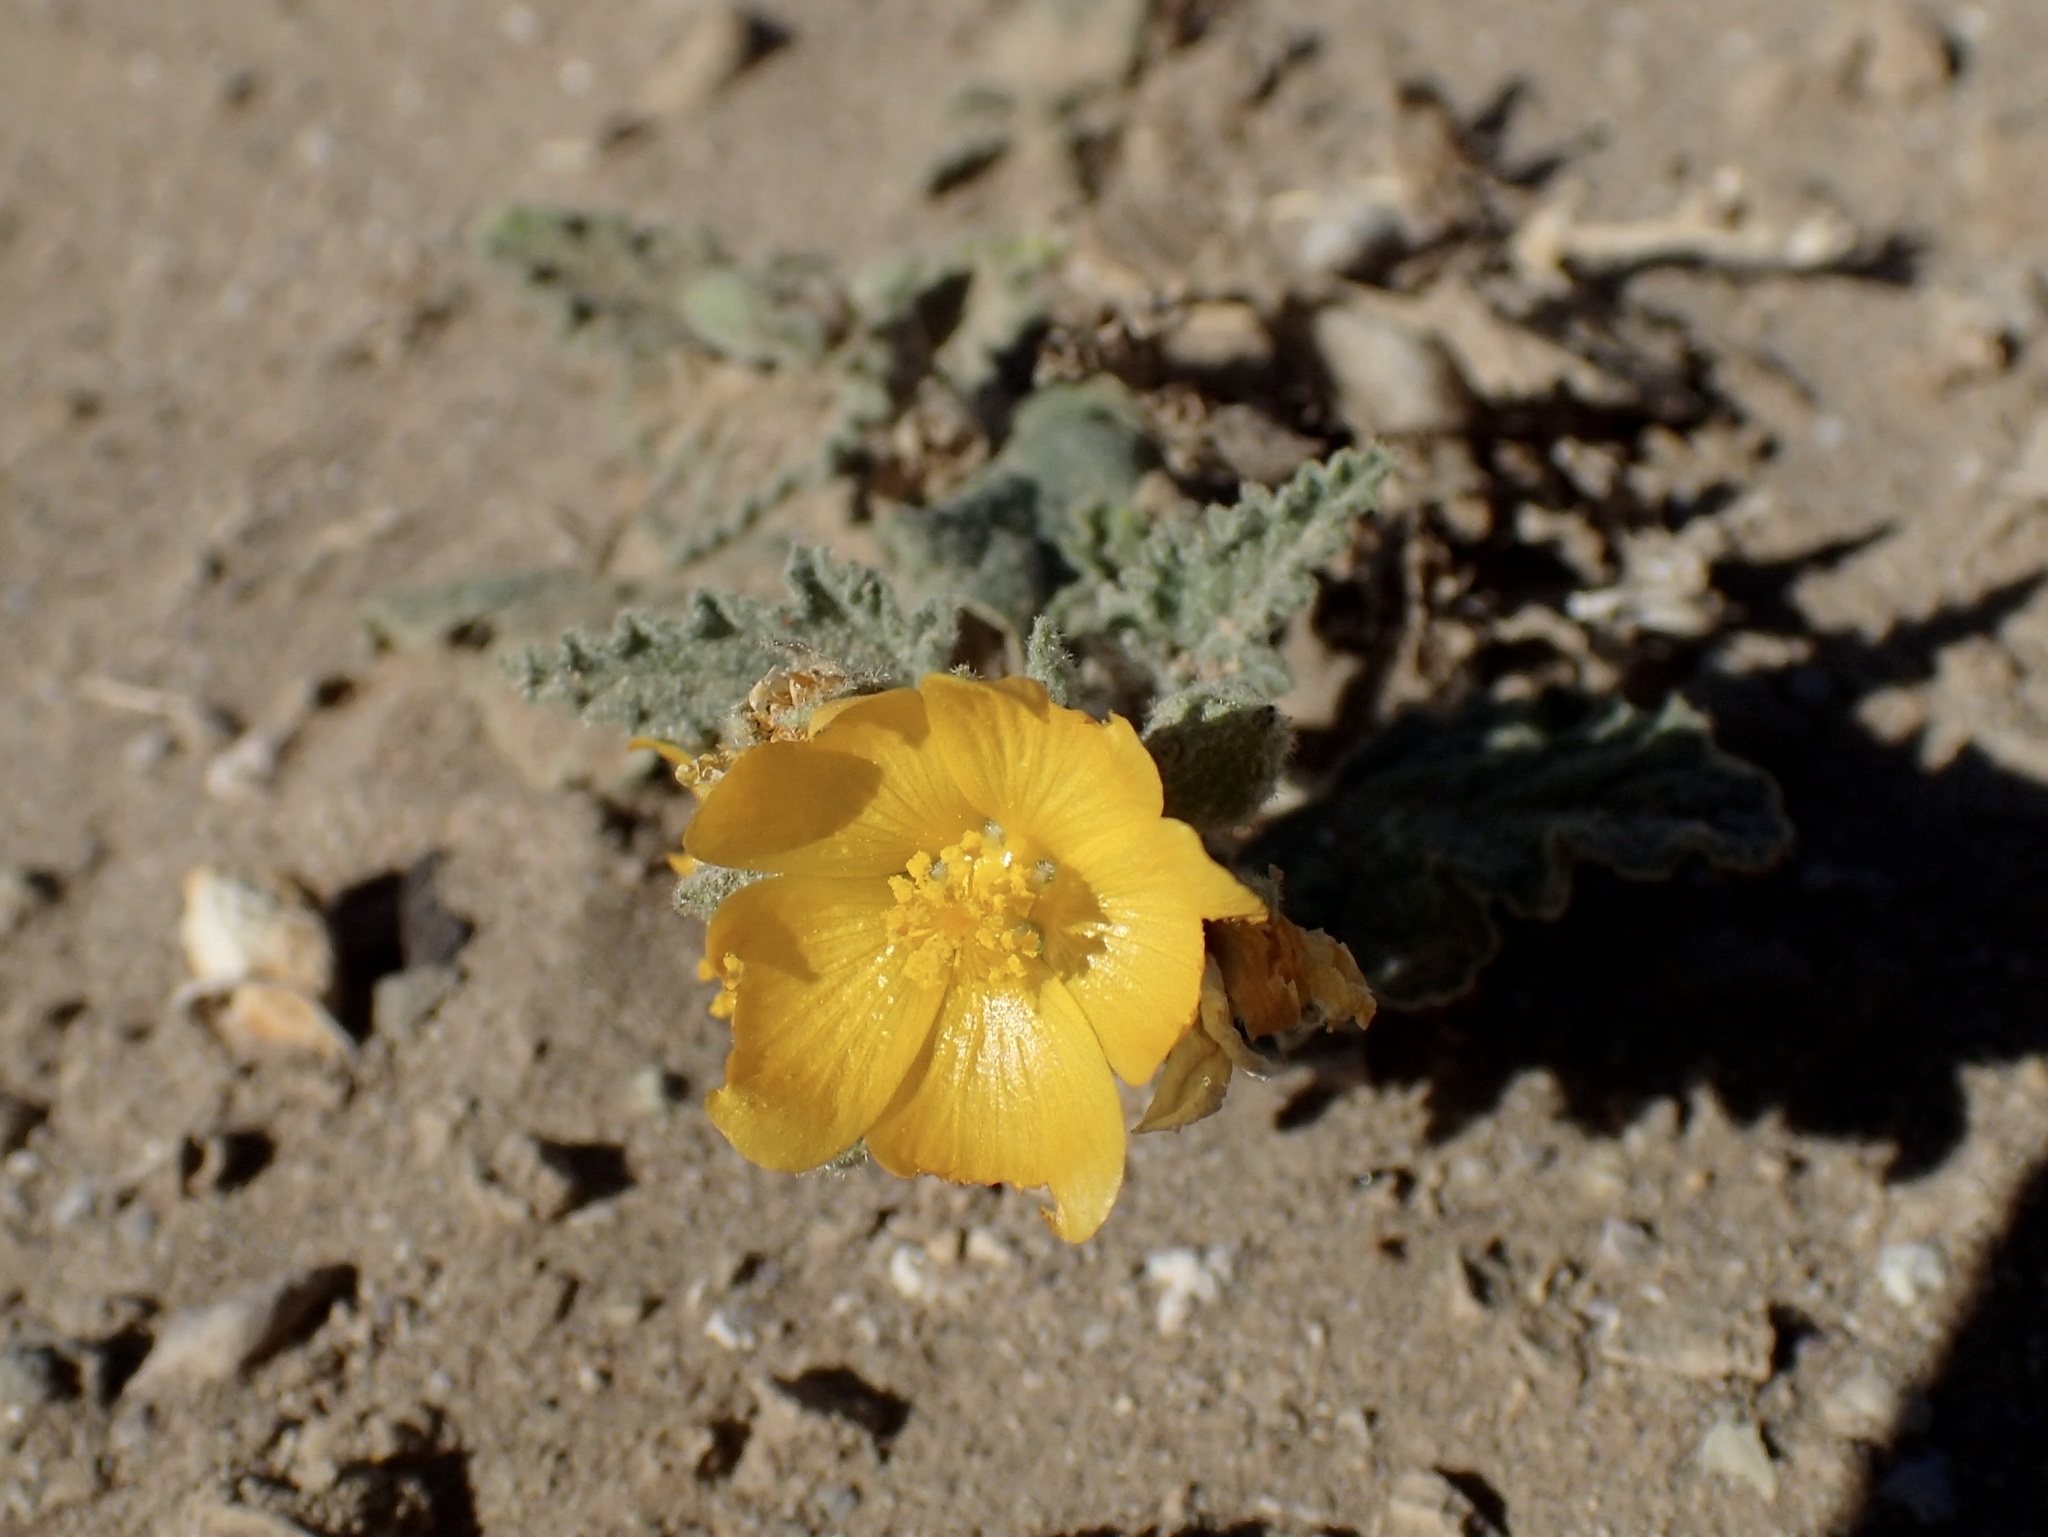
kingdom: Plantae
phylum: Tracheophyta
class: Magnoliopsida
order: Malvales
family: Malvaceae
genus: Sphaeralcea
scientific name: Sphaeralcea coulteri
